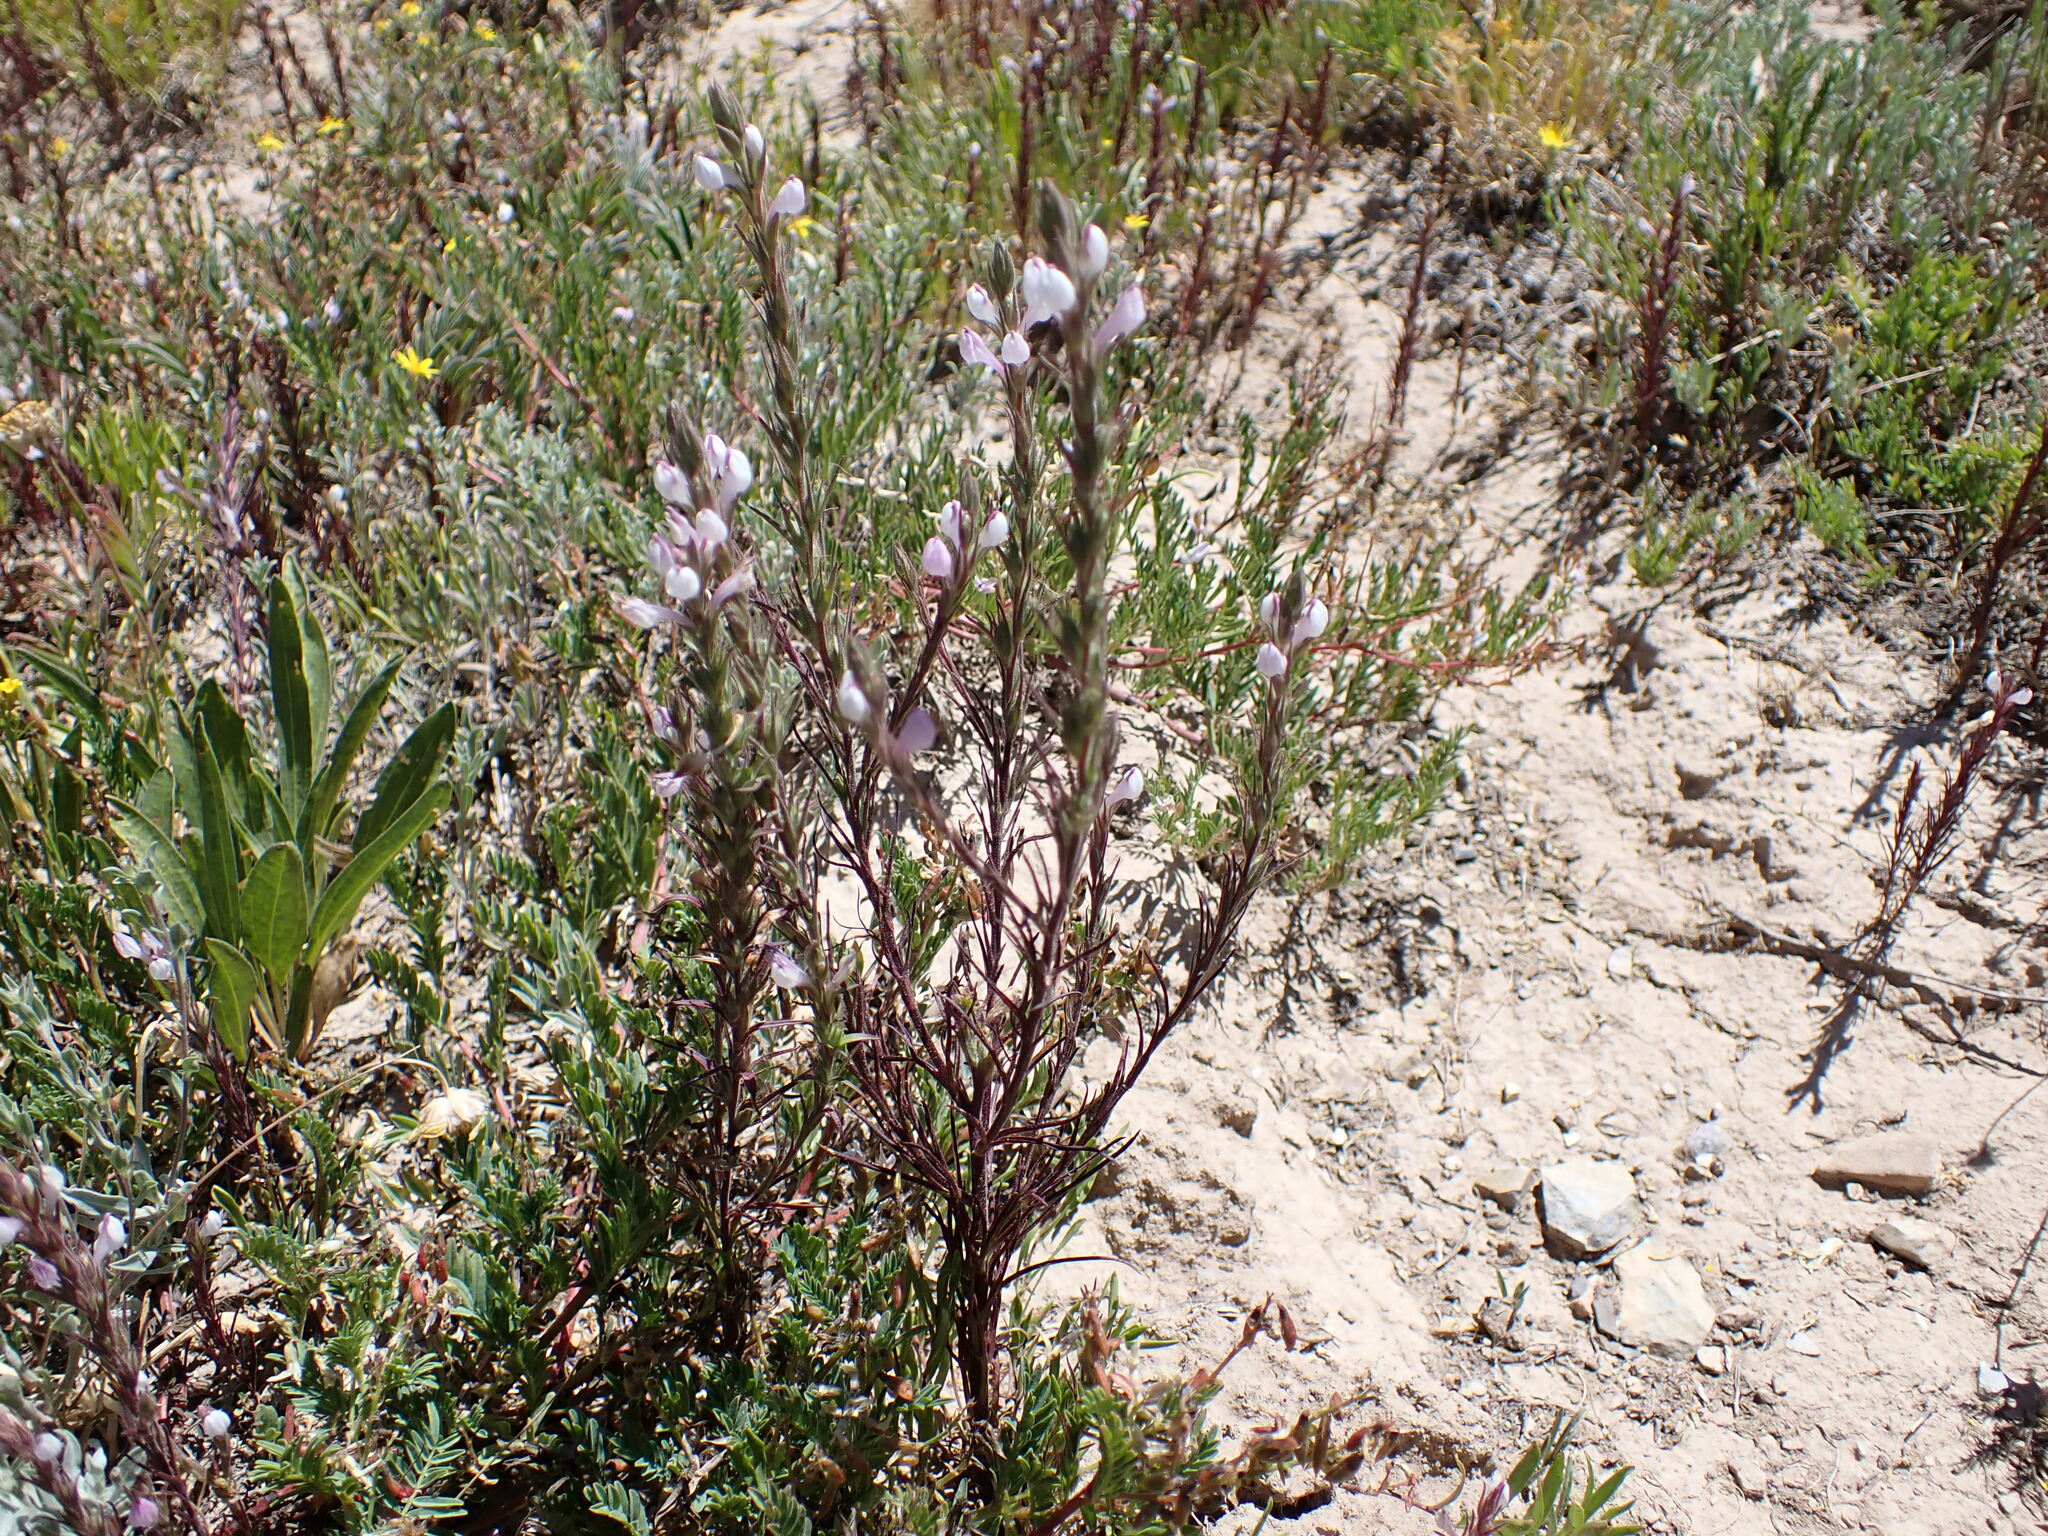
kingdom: Plantae
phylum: Tracheophyta
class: Magnoliopsida
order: Lamiales
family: Orobanchaceae
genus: Orthocarpus
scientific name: Orthocarpus purpureoalbus
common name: Violet owl-clover
